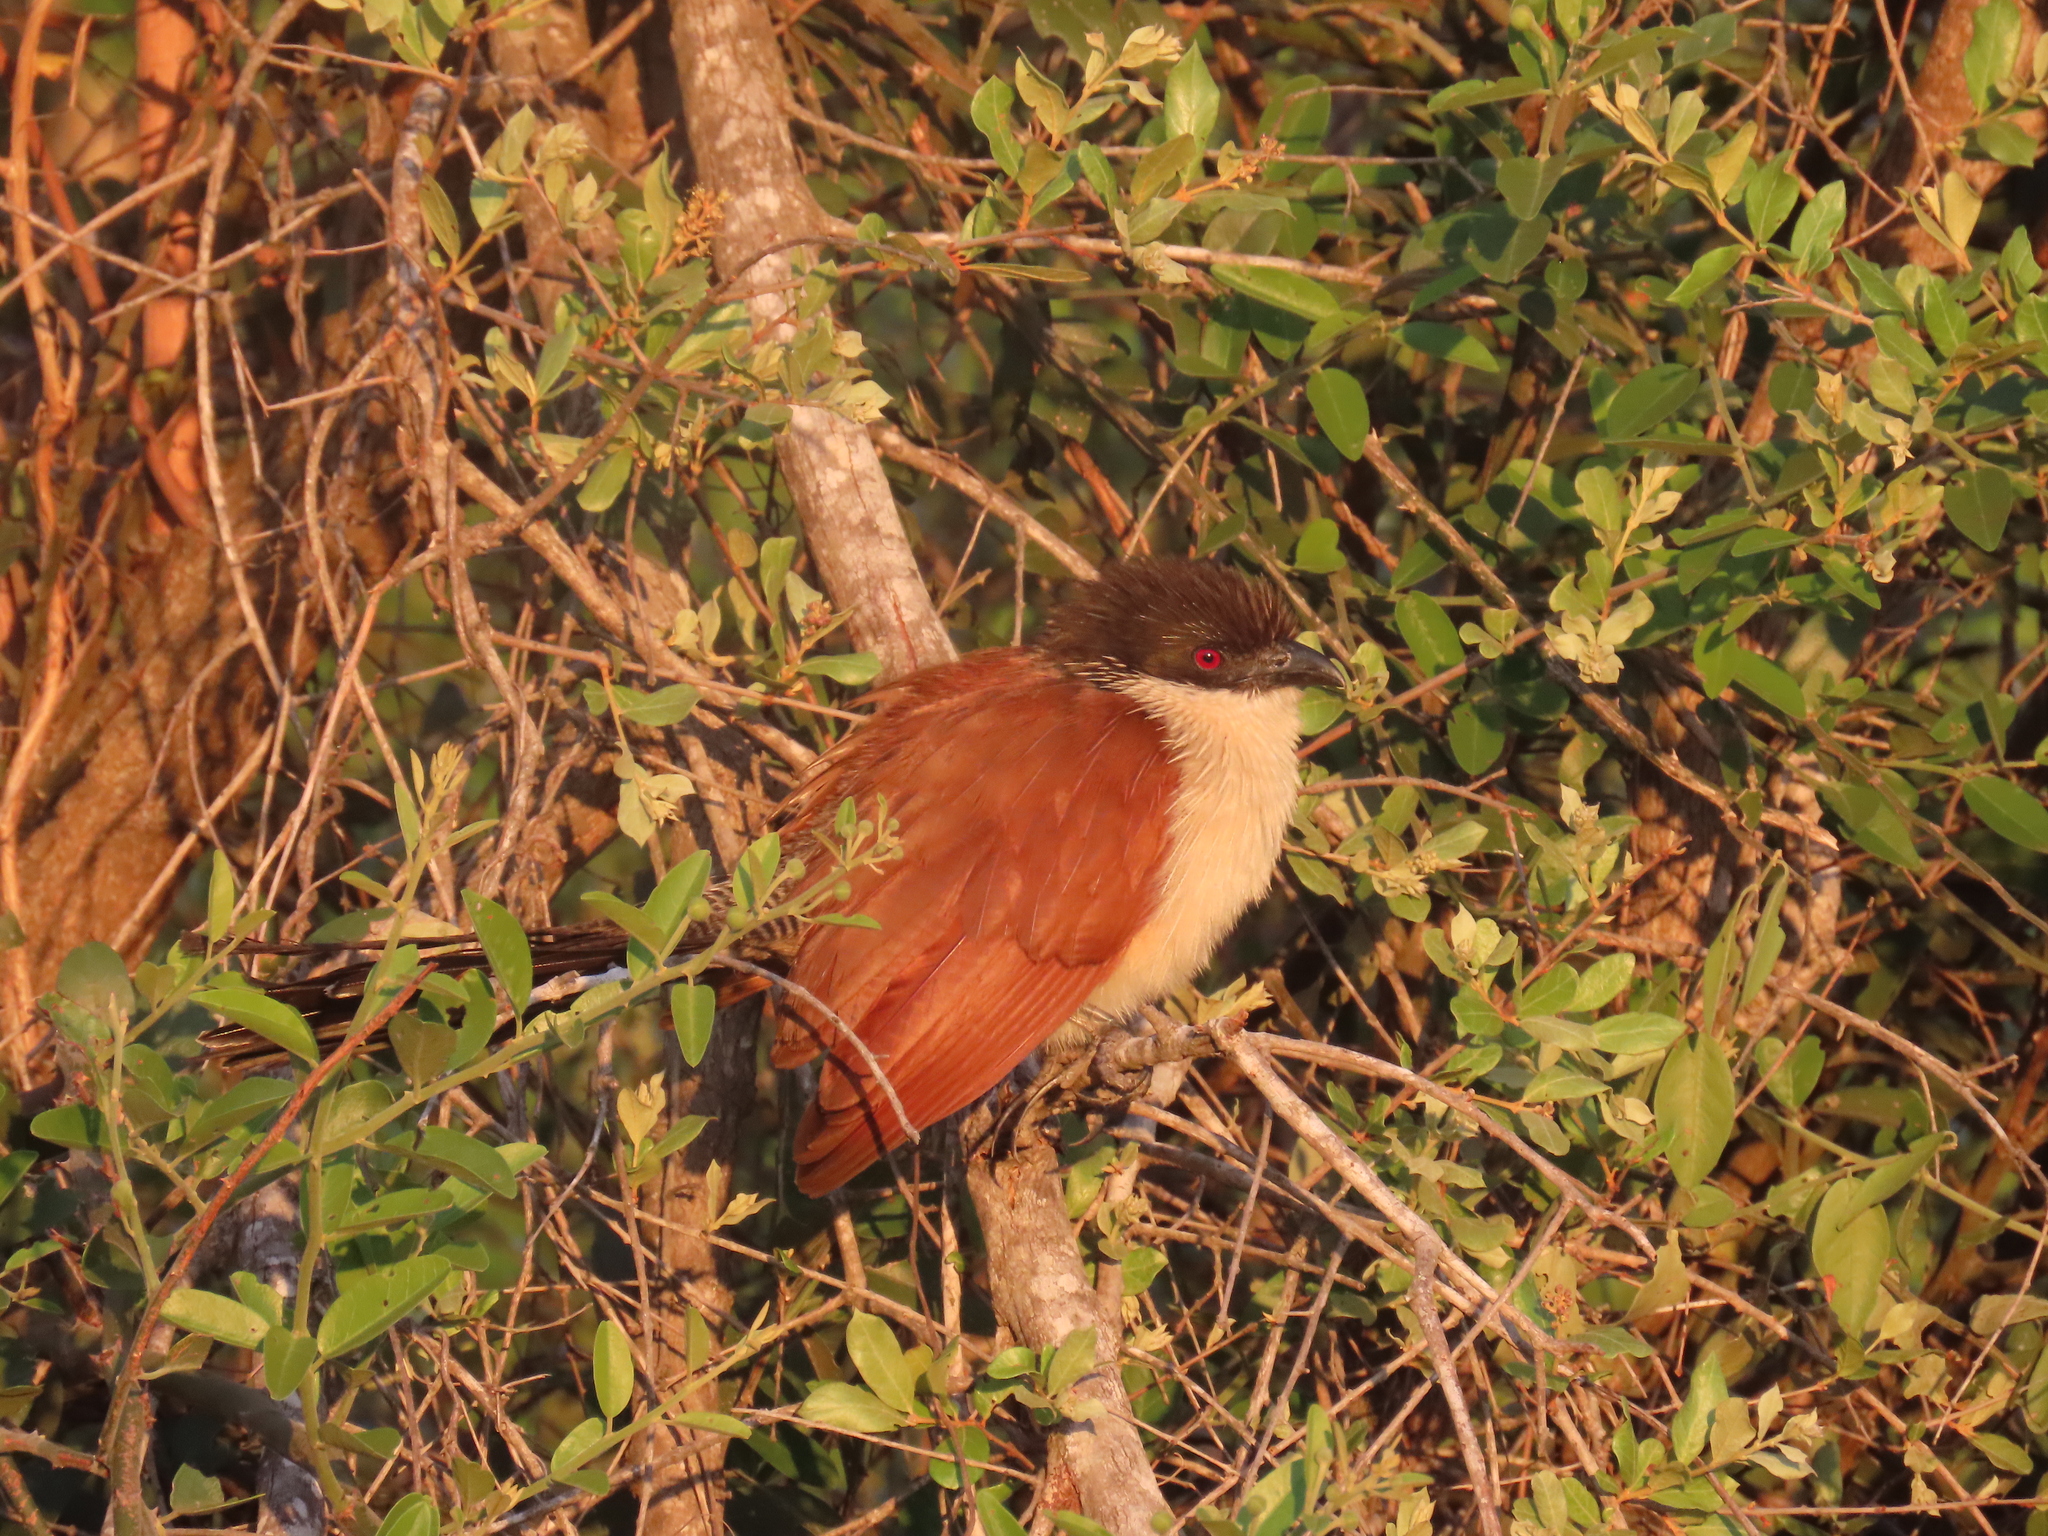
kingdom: Animalia
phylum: Chordata
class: Aves
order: Cuculiformes
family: Cuculidae
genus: Centropus
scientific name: Centropus superciliosus
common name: White-browed coucal
